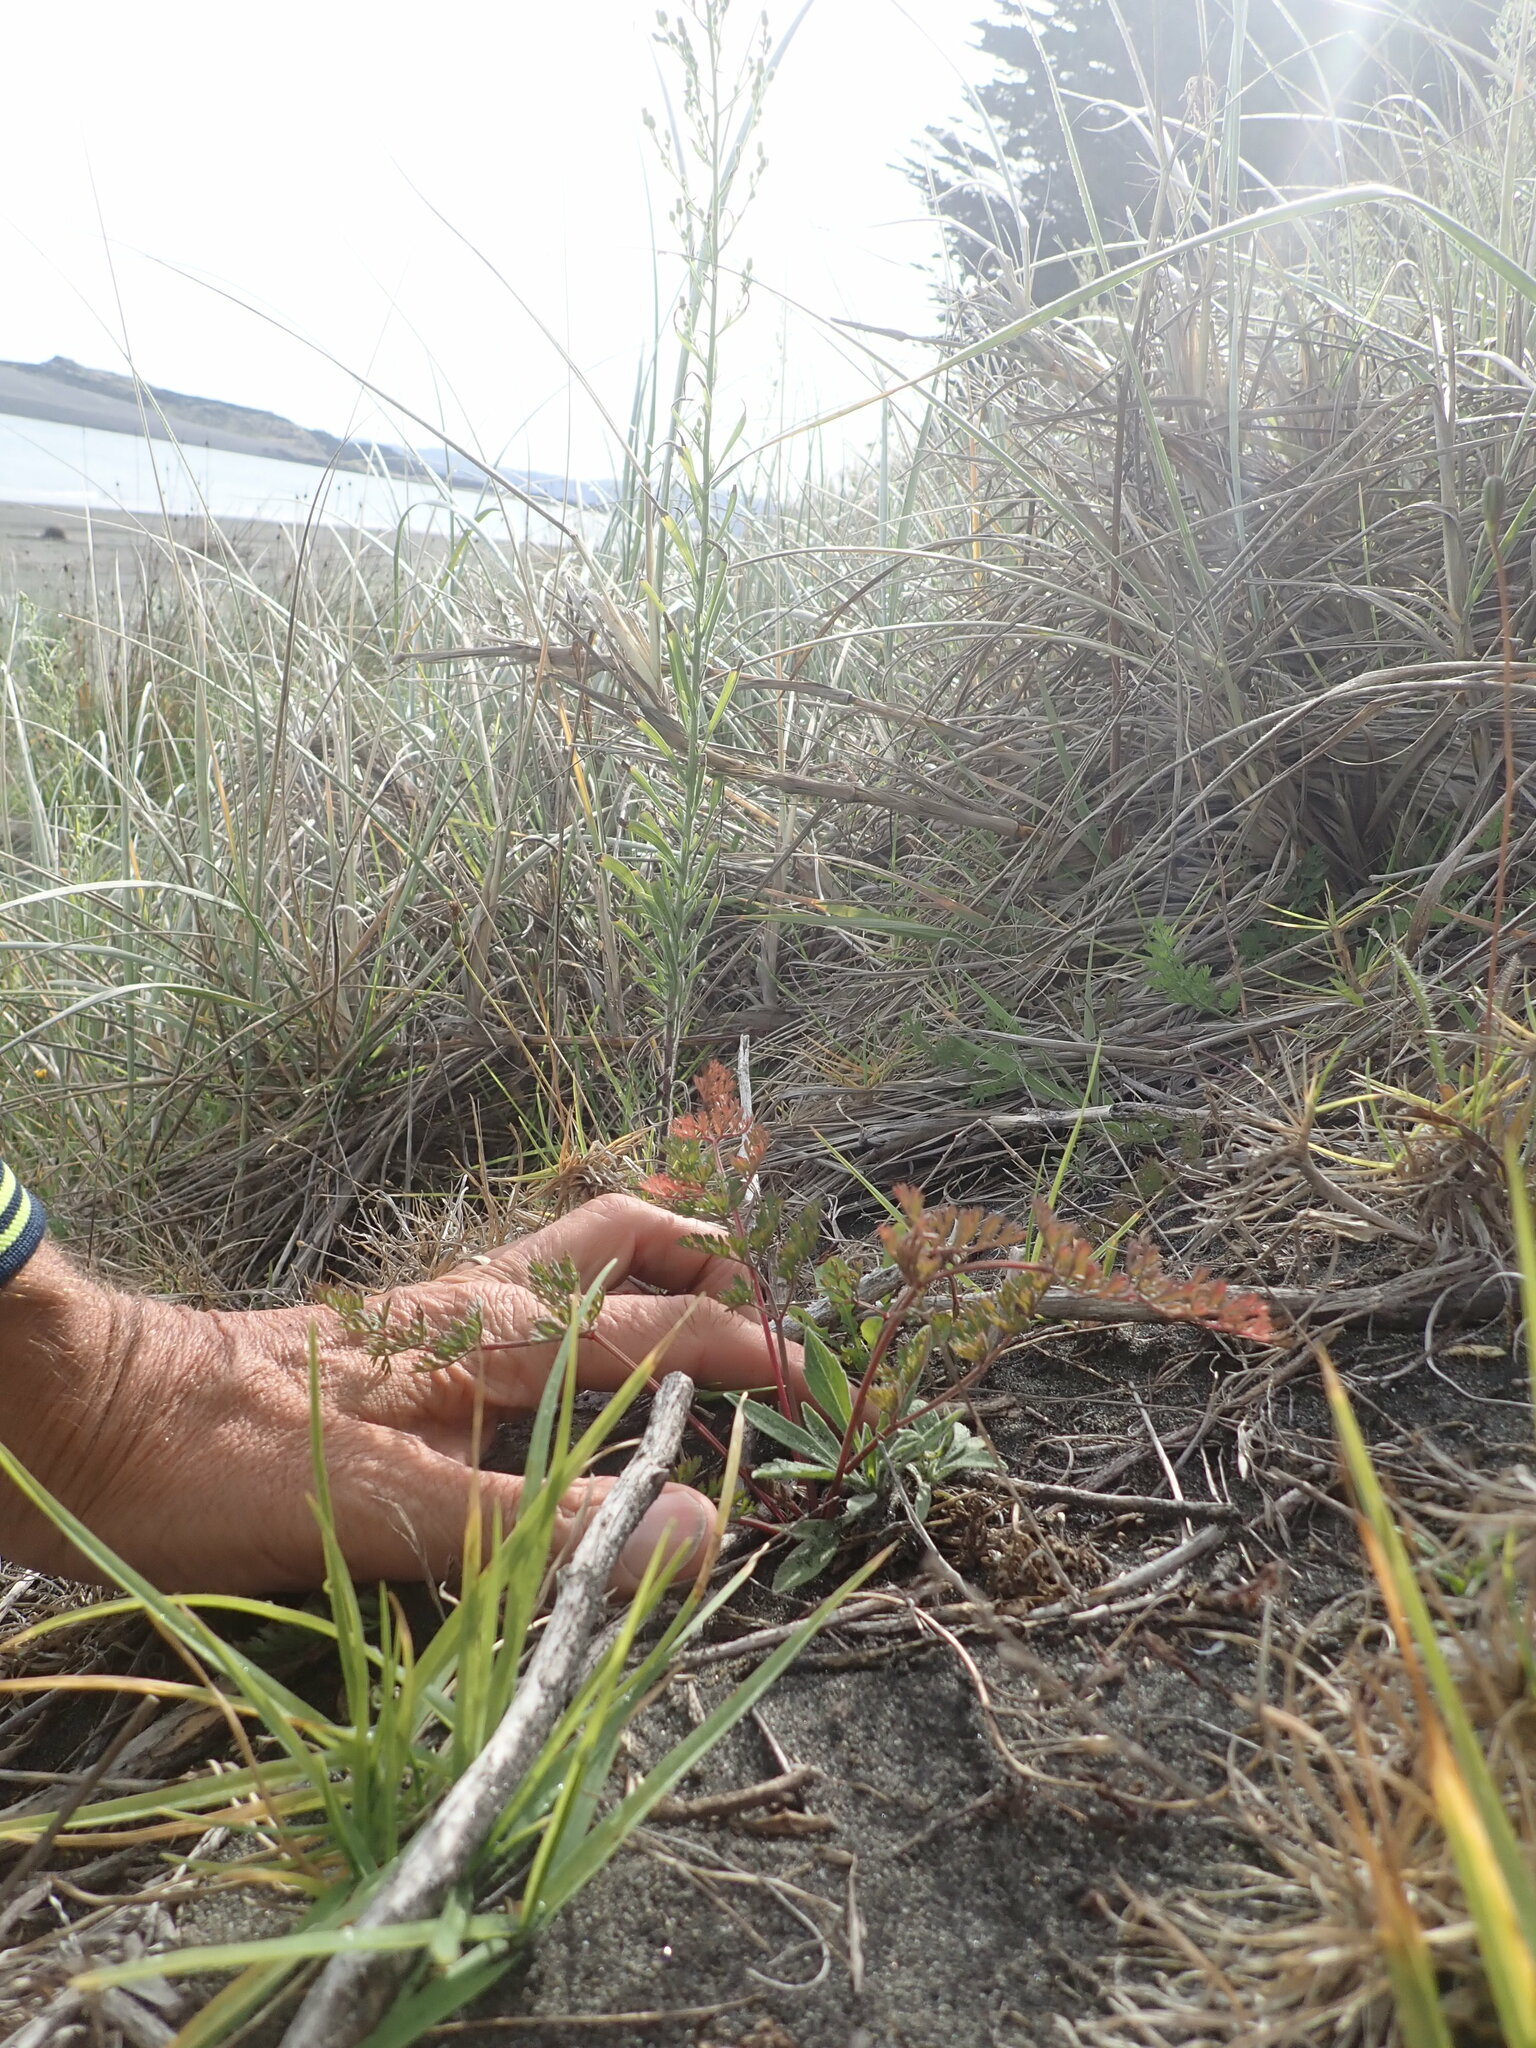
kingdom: Plantae
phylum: Tracheophyta
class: Magnoliopsida
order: Apiales
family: Apiaceae
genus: Daucus
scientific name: Daucus carota
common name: Wild carrot
